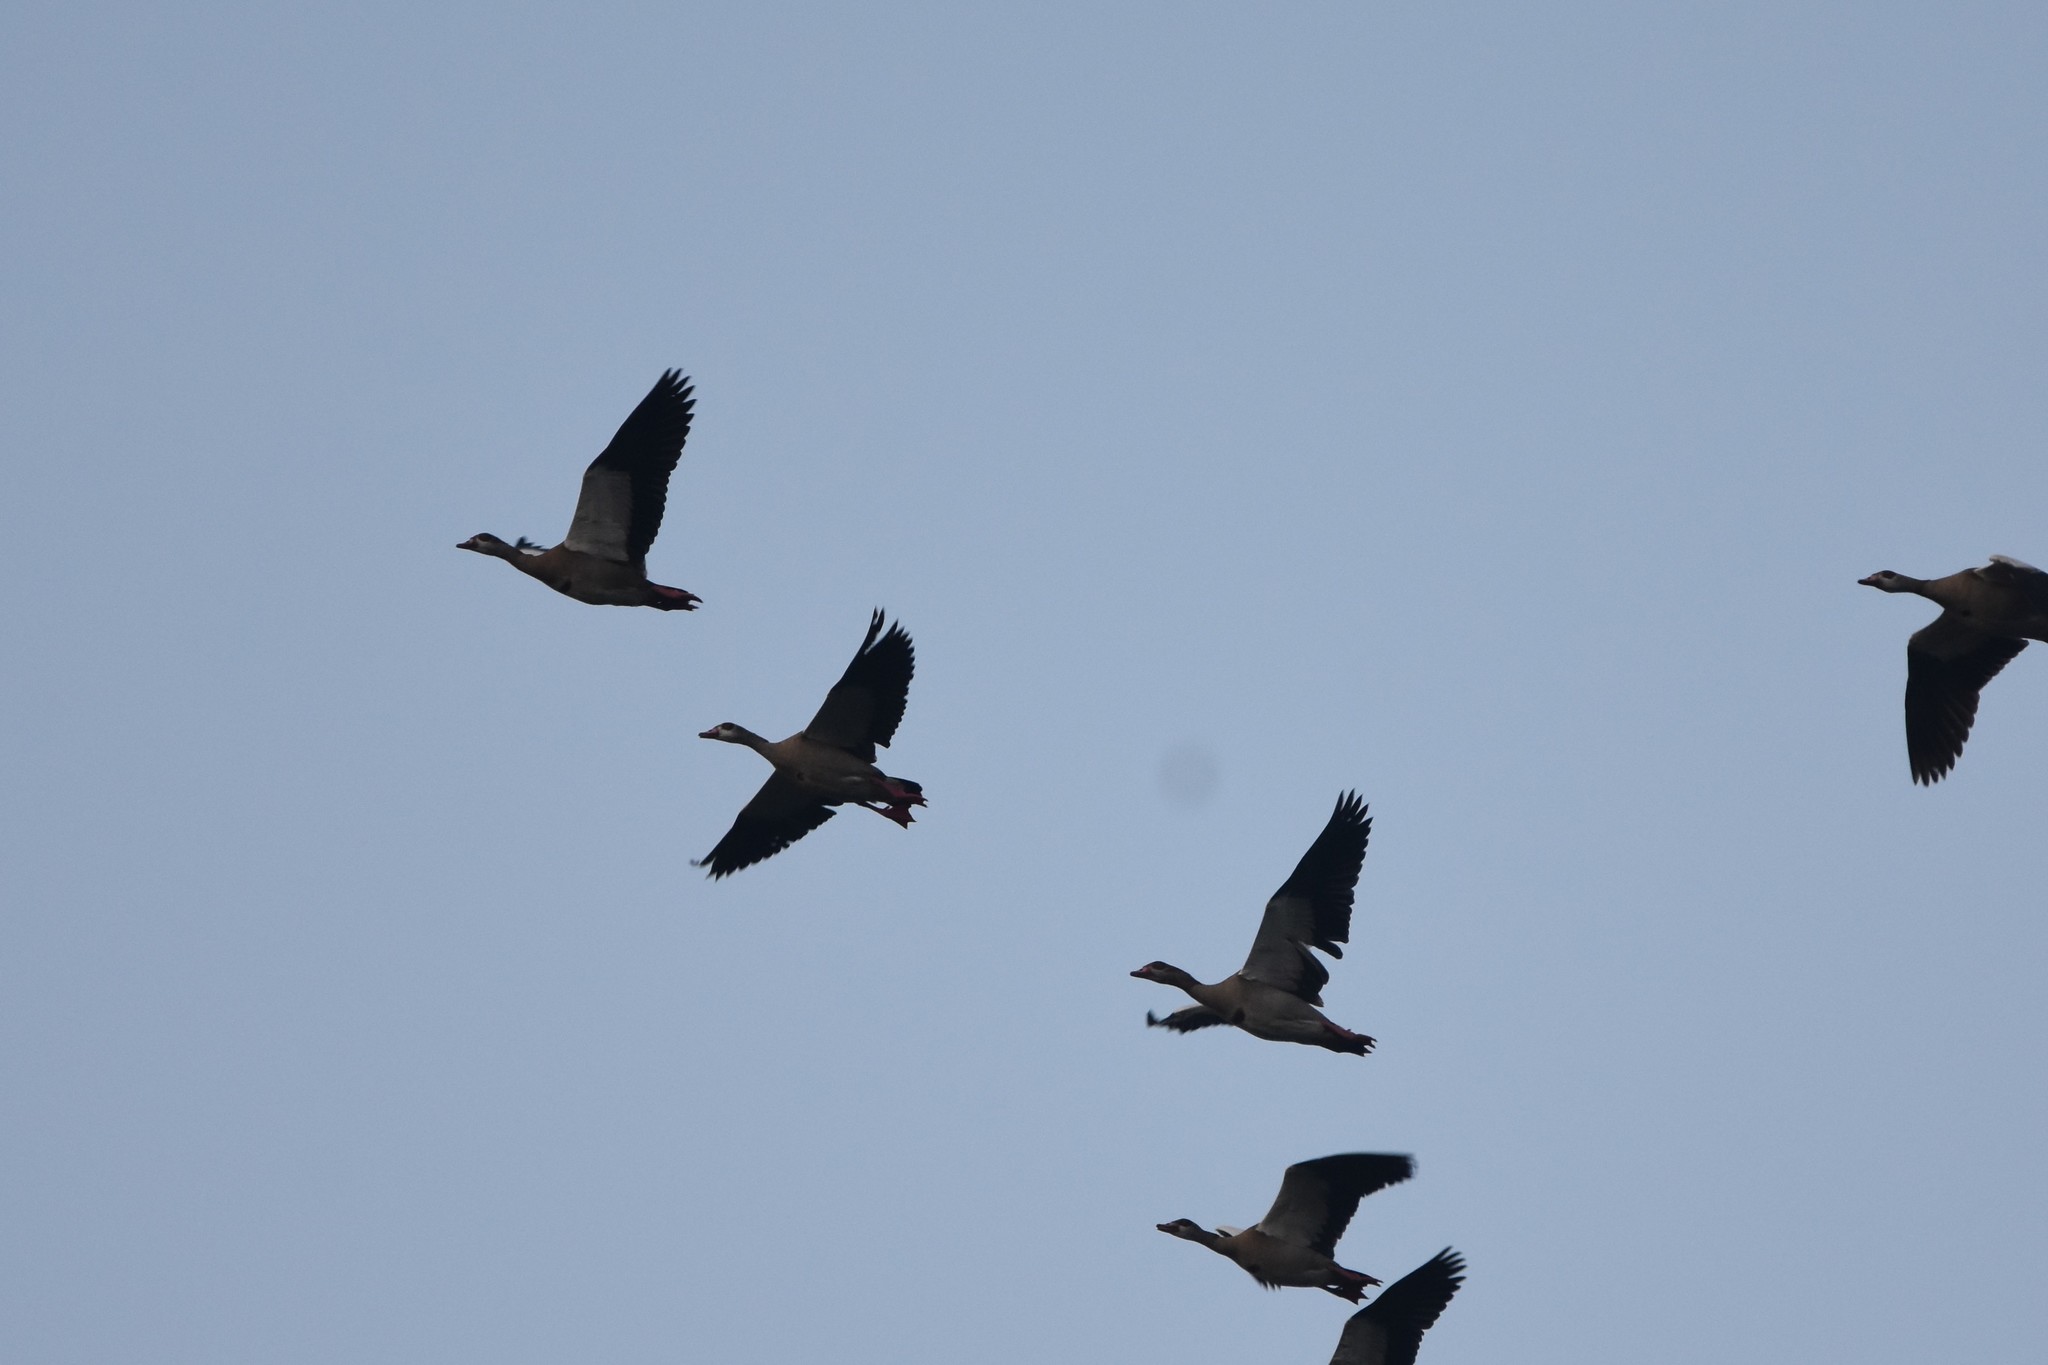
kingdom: Animalia
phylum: Chordata
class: Aves
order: Anseriformes
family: Anatidae
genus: Alopochen
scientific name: Alopochen aegyptiaca
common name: Egyptian goose
